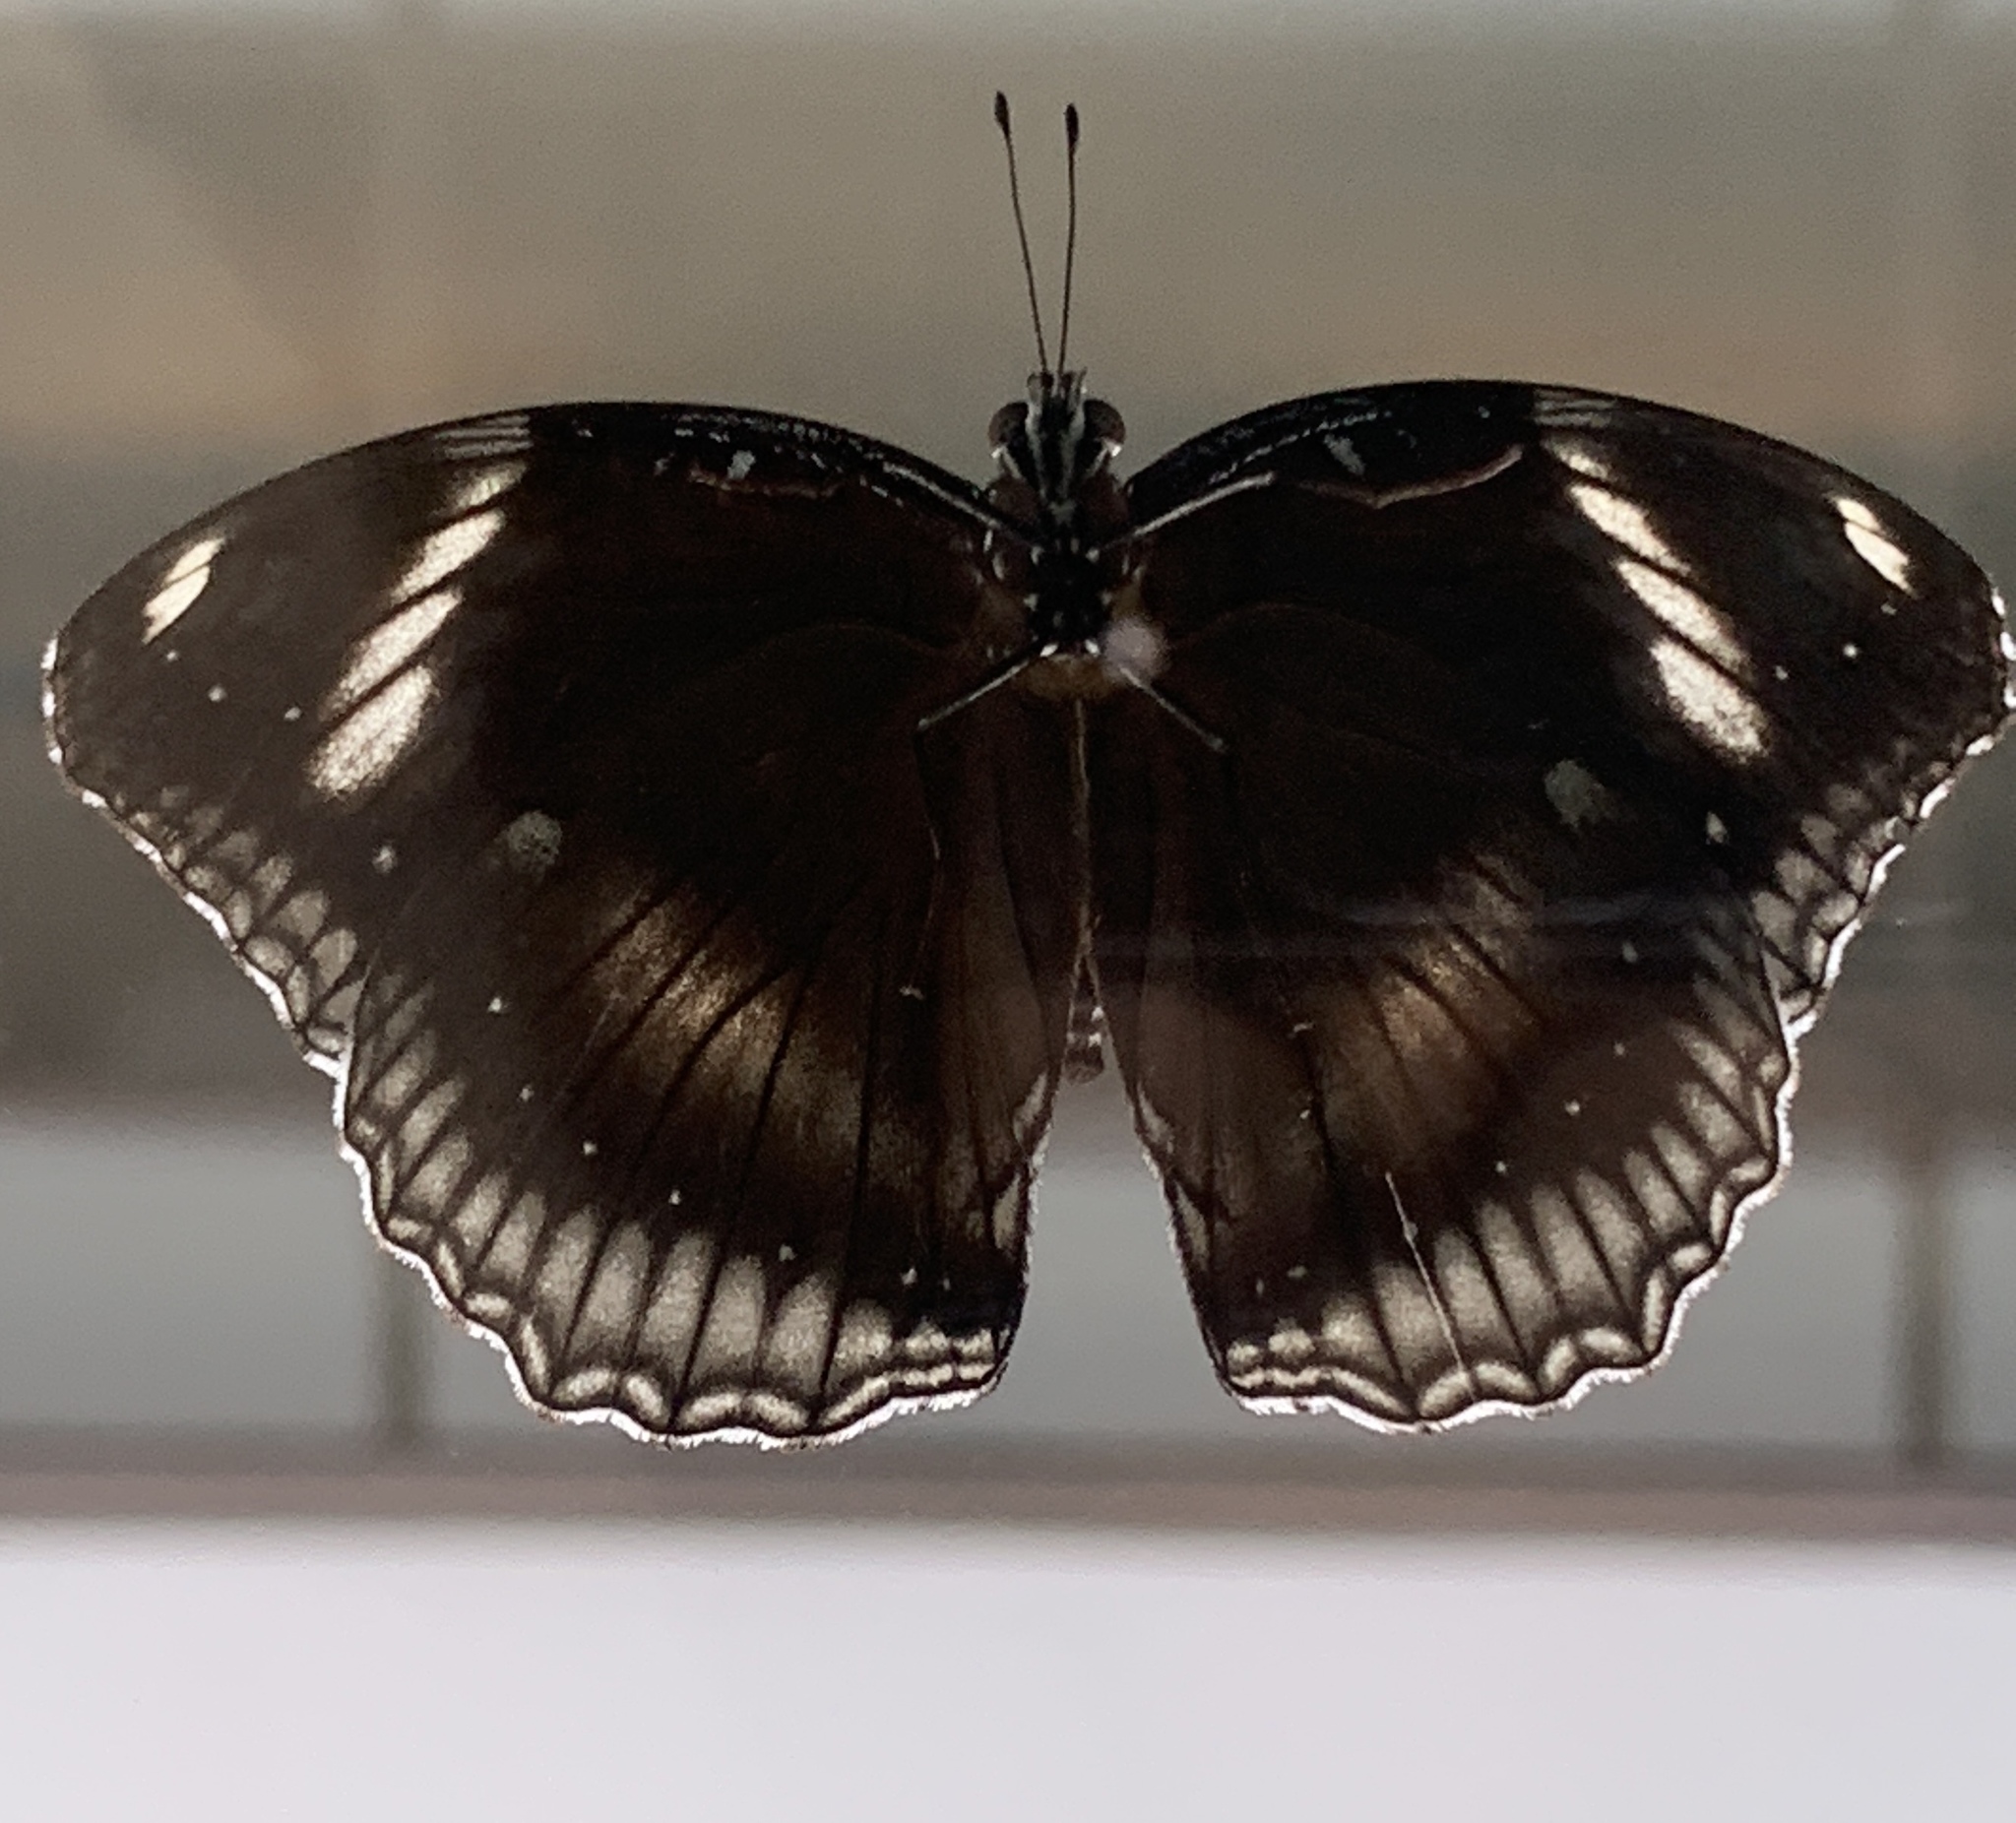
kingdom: Animalia
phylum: Arthropoda
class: Insecta
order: Lepidoptera
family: Nymphalidae
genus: Hypolimnas
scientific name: Hypolimnas bolina
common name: Great eggfly
